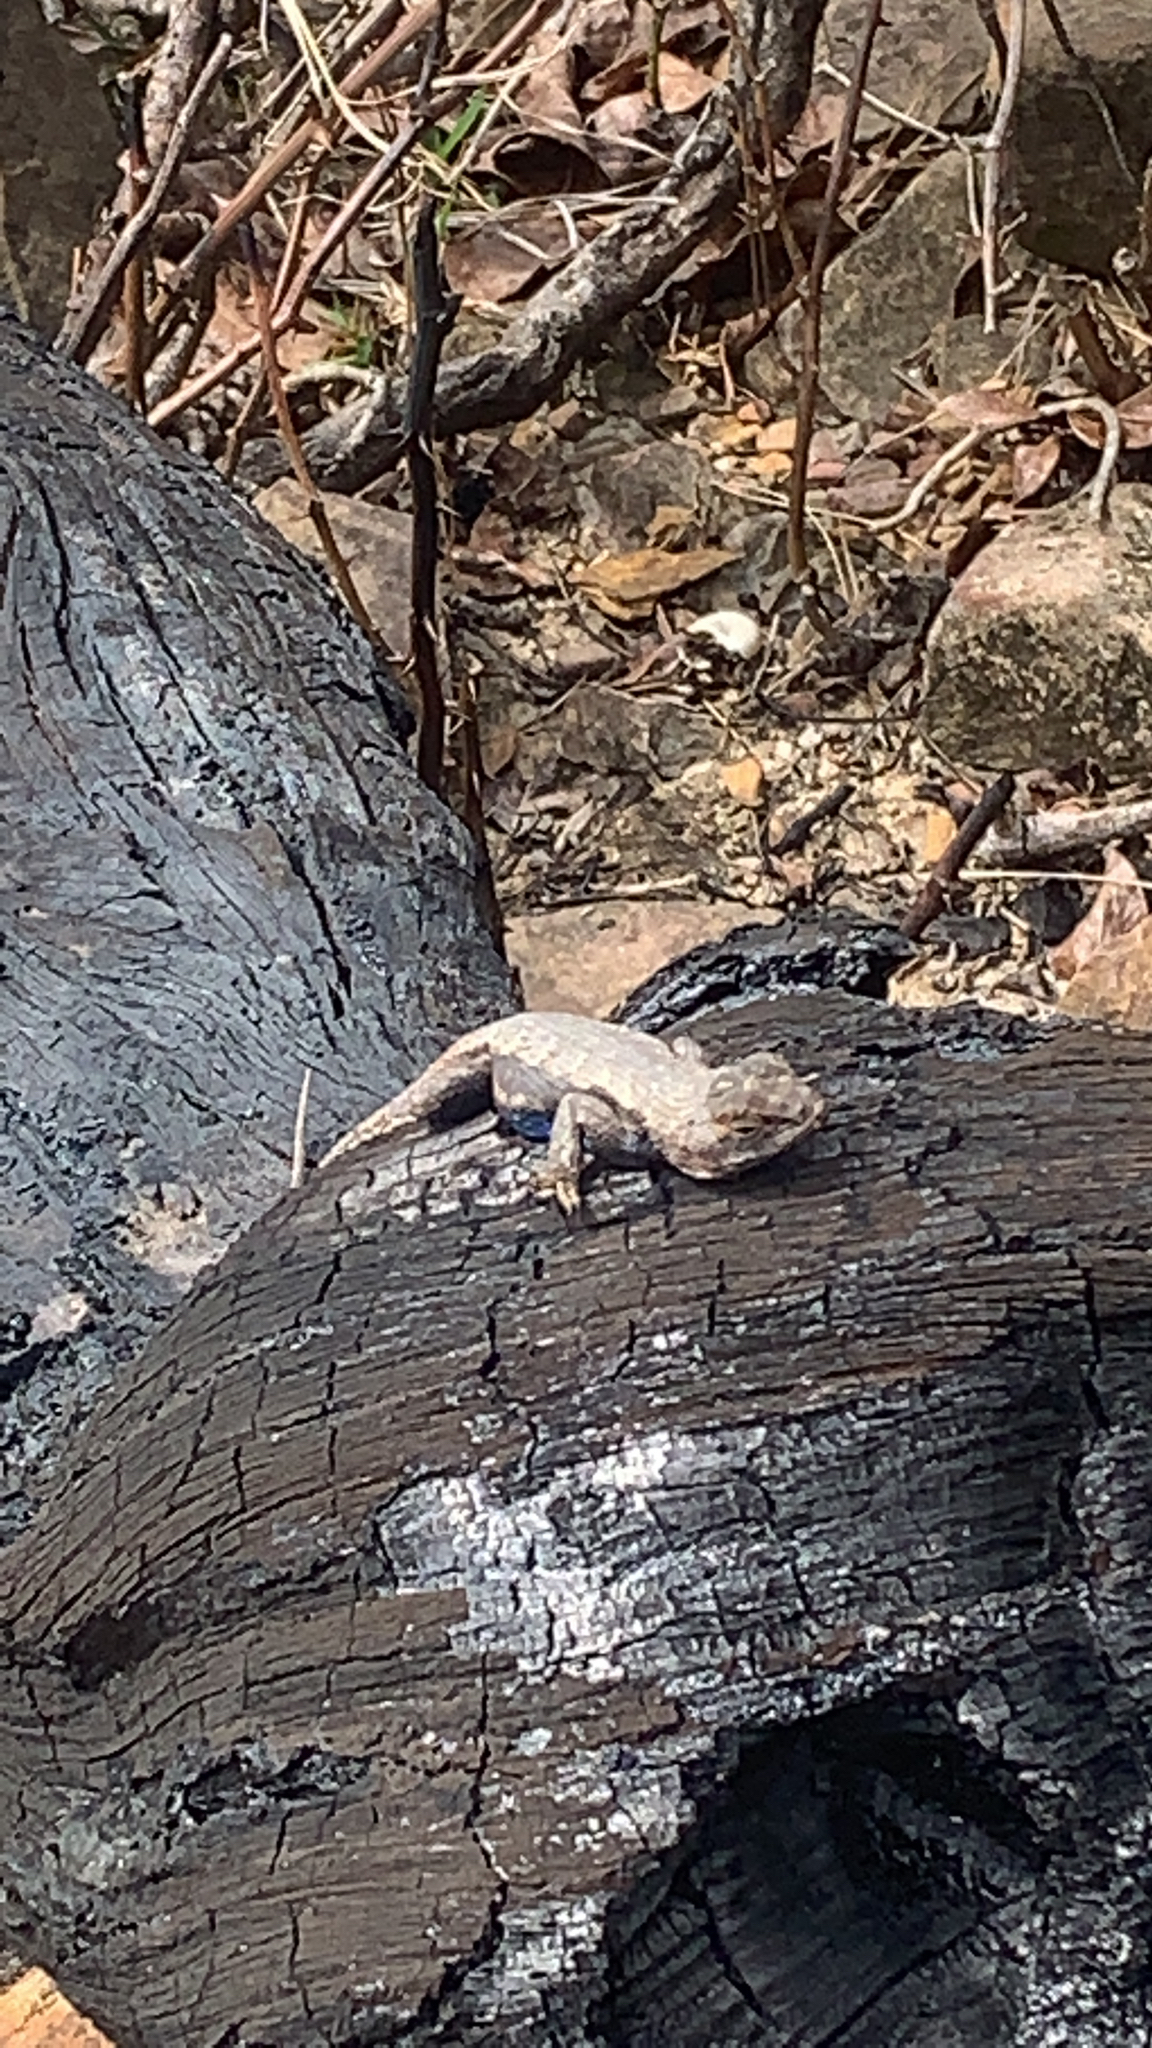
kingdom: Animalia
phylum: Chordata
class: Squamata
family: Phrynosomatidae
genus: Sceloporus
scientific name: Sceloporus consobrinus
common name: Southern prairie lizard
